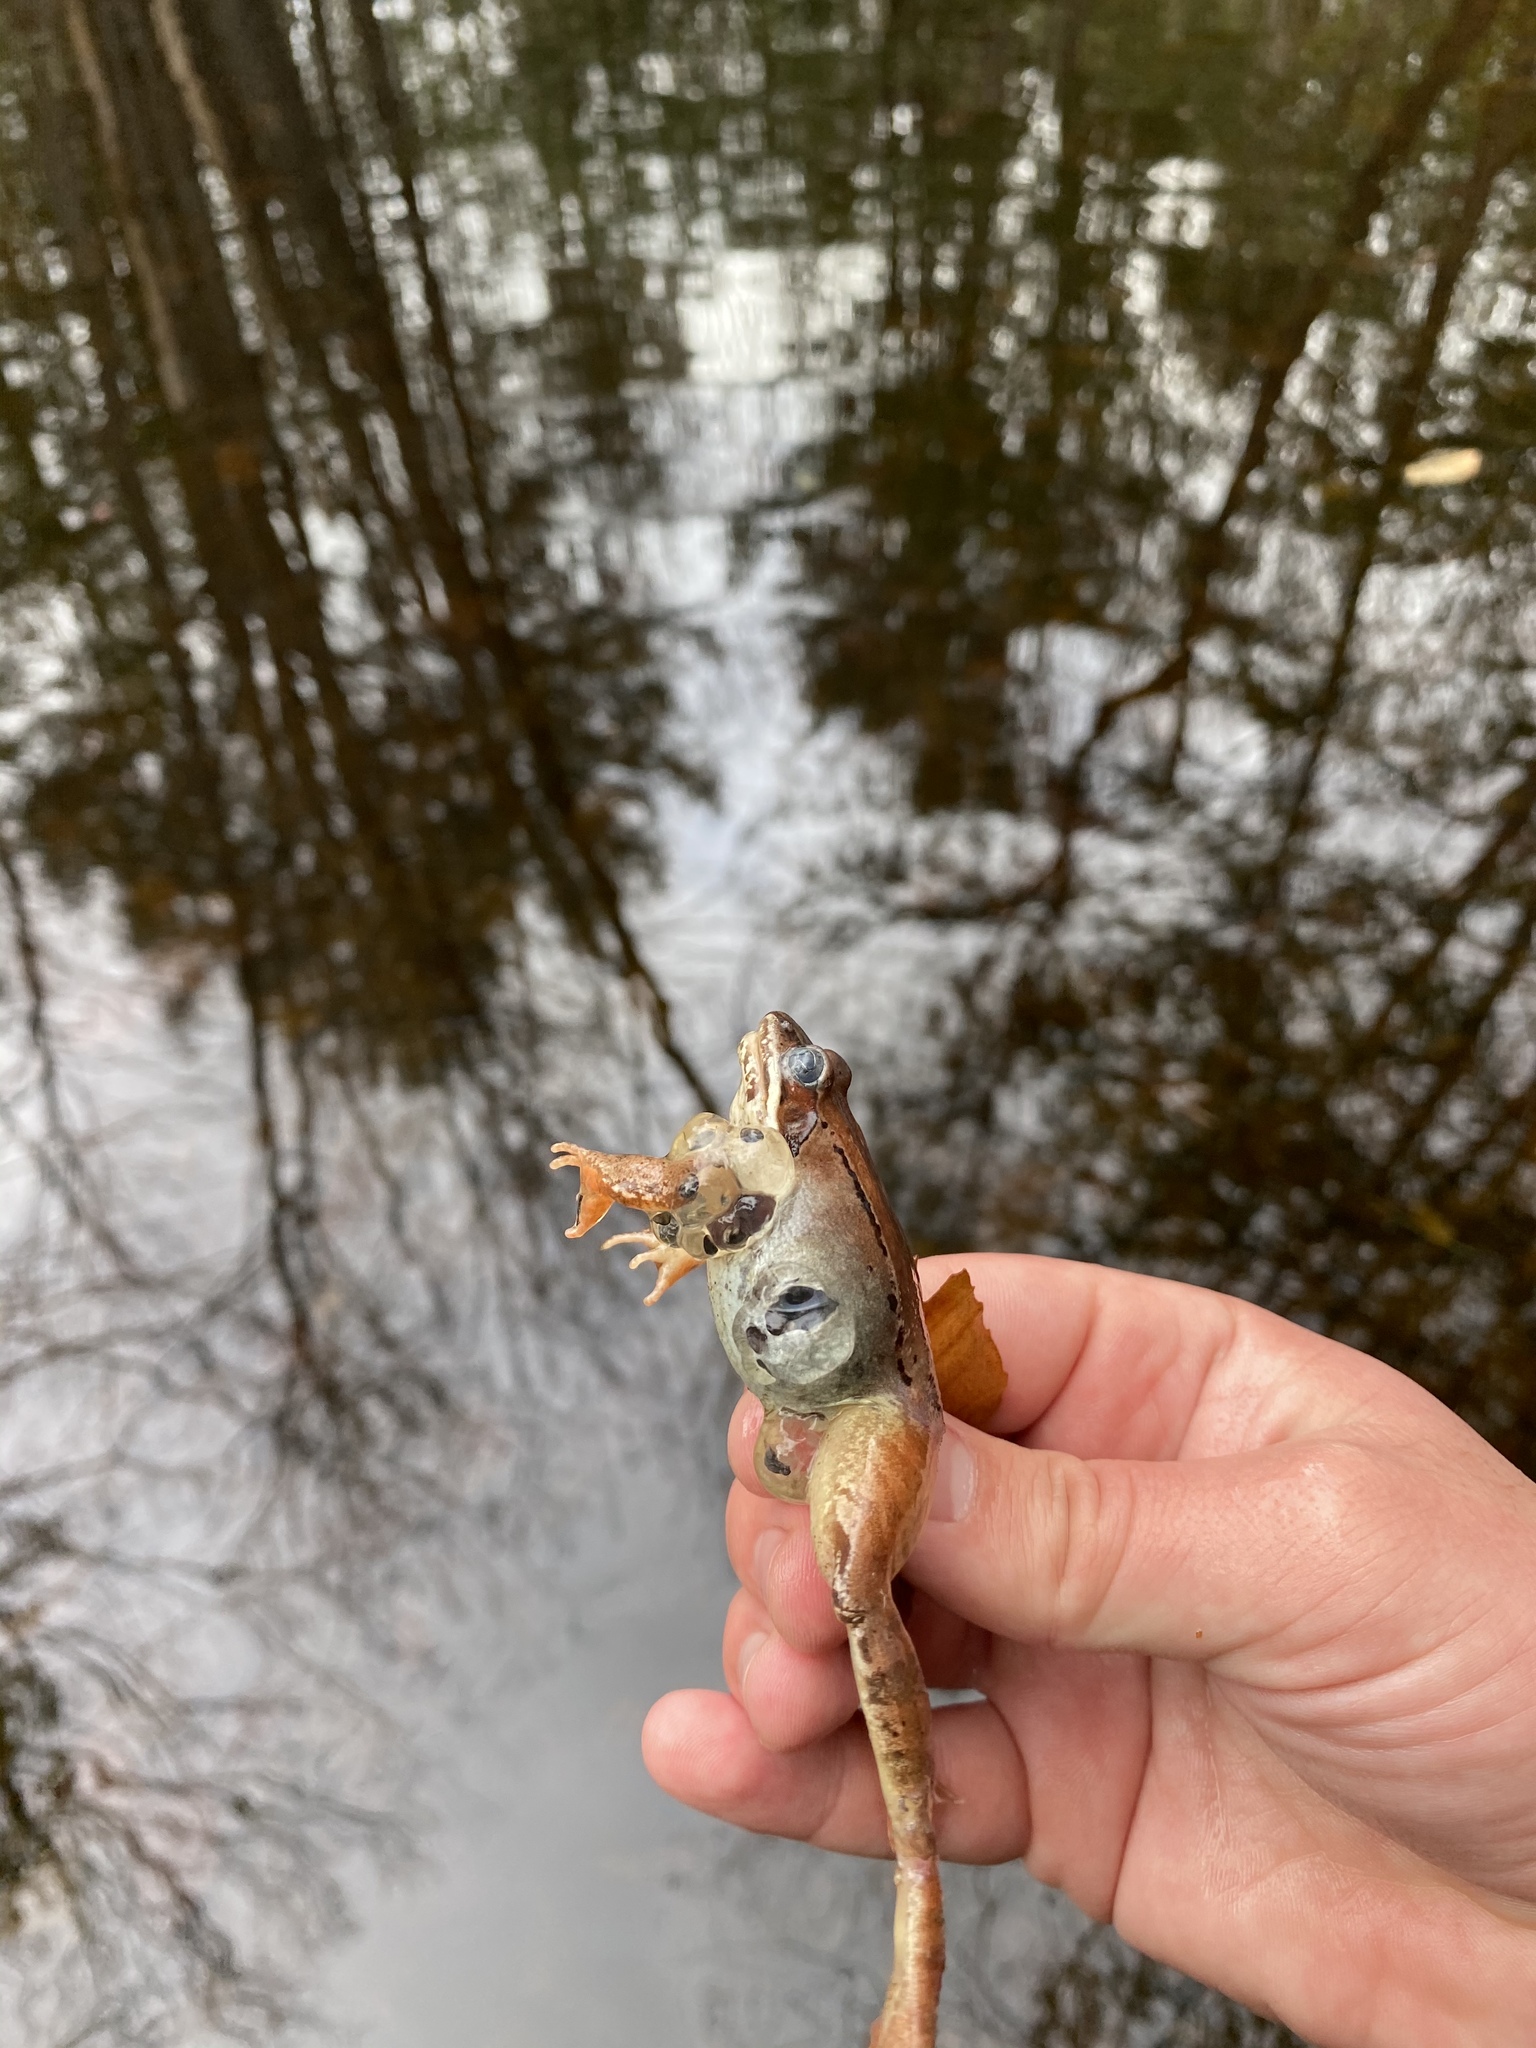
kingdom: Animalia
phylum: Chordata
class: Amphibia
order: Anura
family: Ranidae
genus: Lithobates
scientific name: Lithobates sylvaticus
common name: Wood frog
